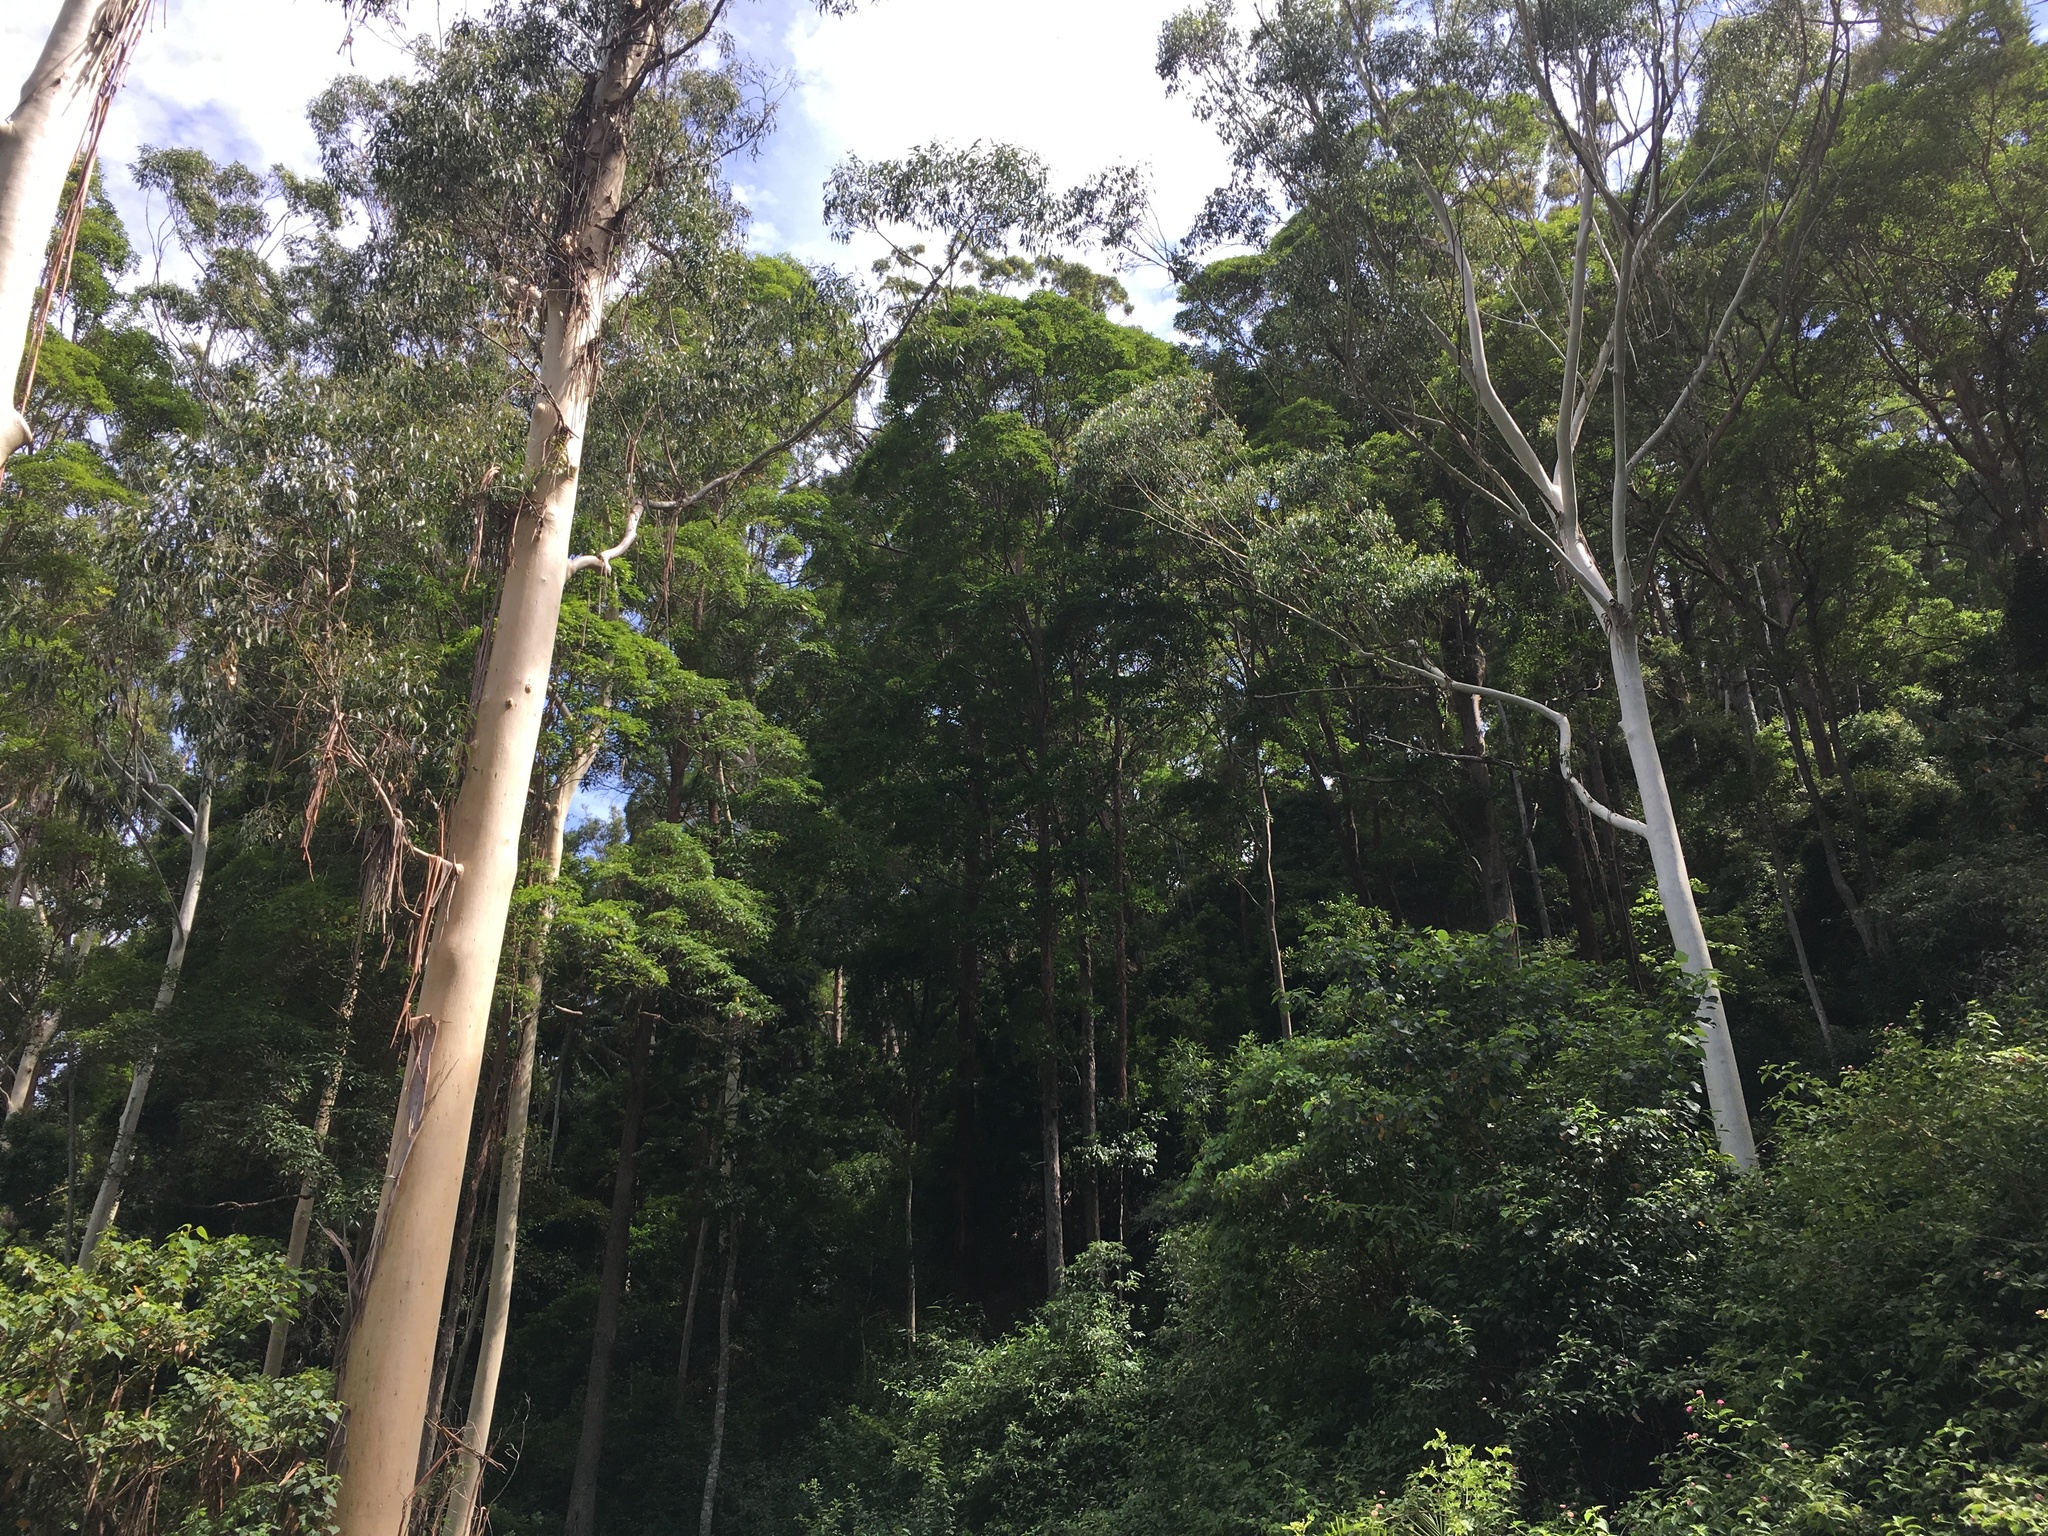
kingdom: Plantae
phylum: Tracheophyta
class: Magnoliopsida
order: Myrtales
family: Myrtaceae
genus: Eucalyptus
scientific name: Eucalyptus grandis
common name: Grand eucalyptus
